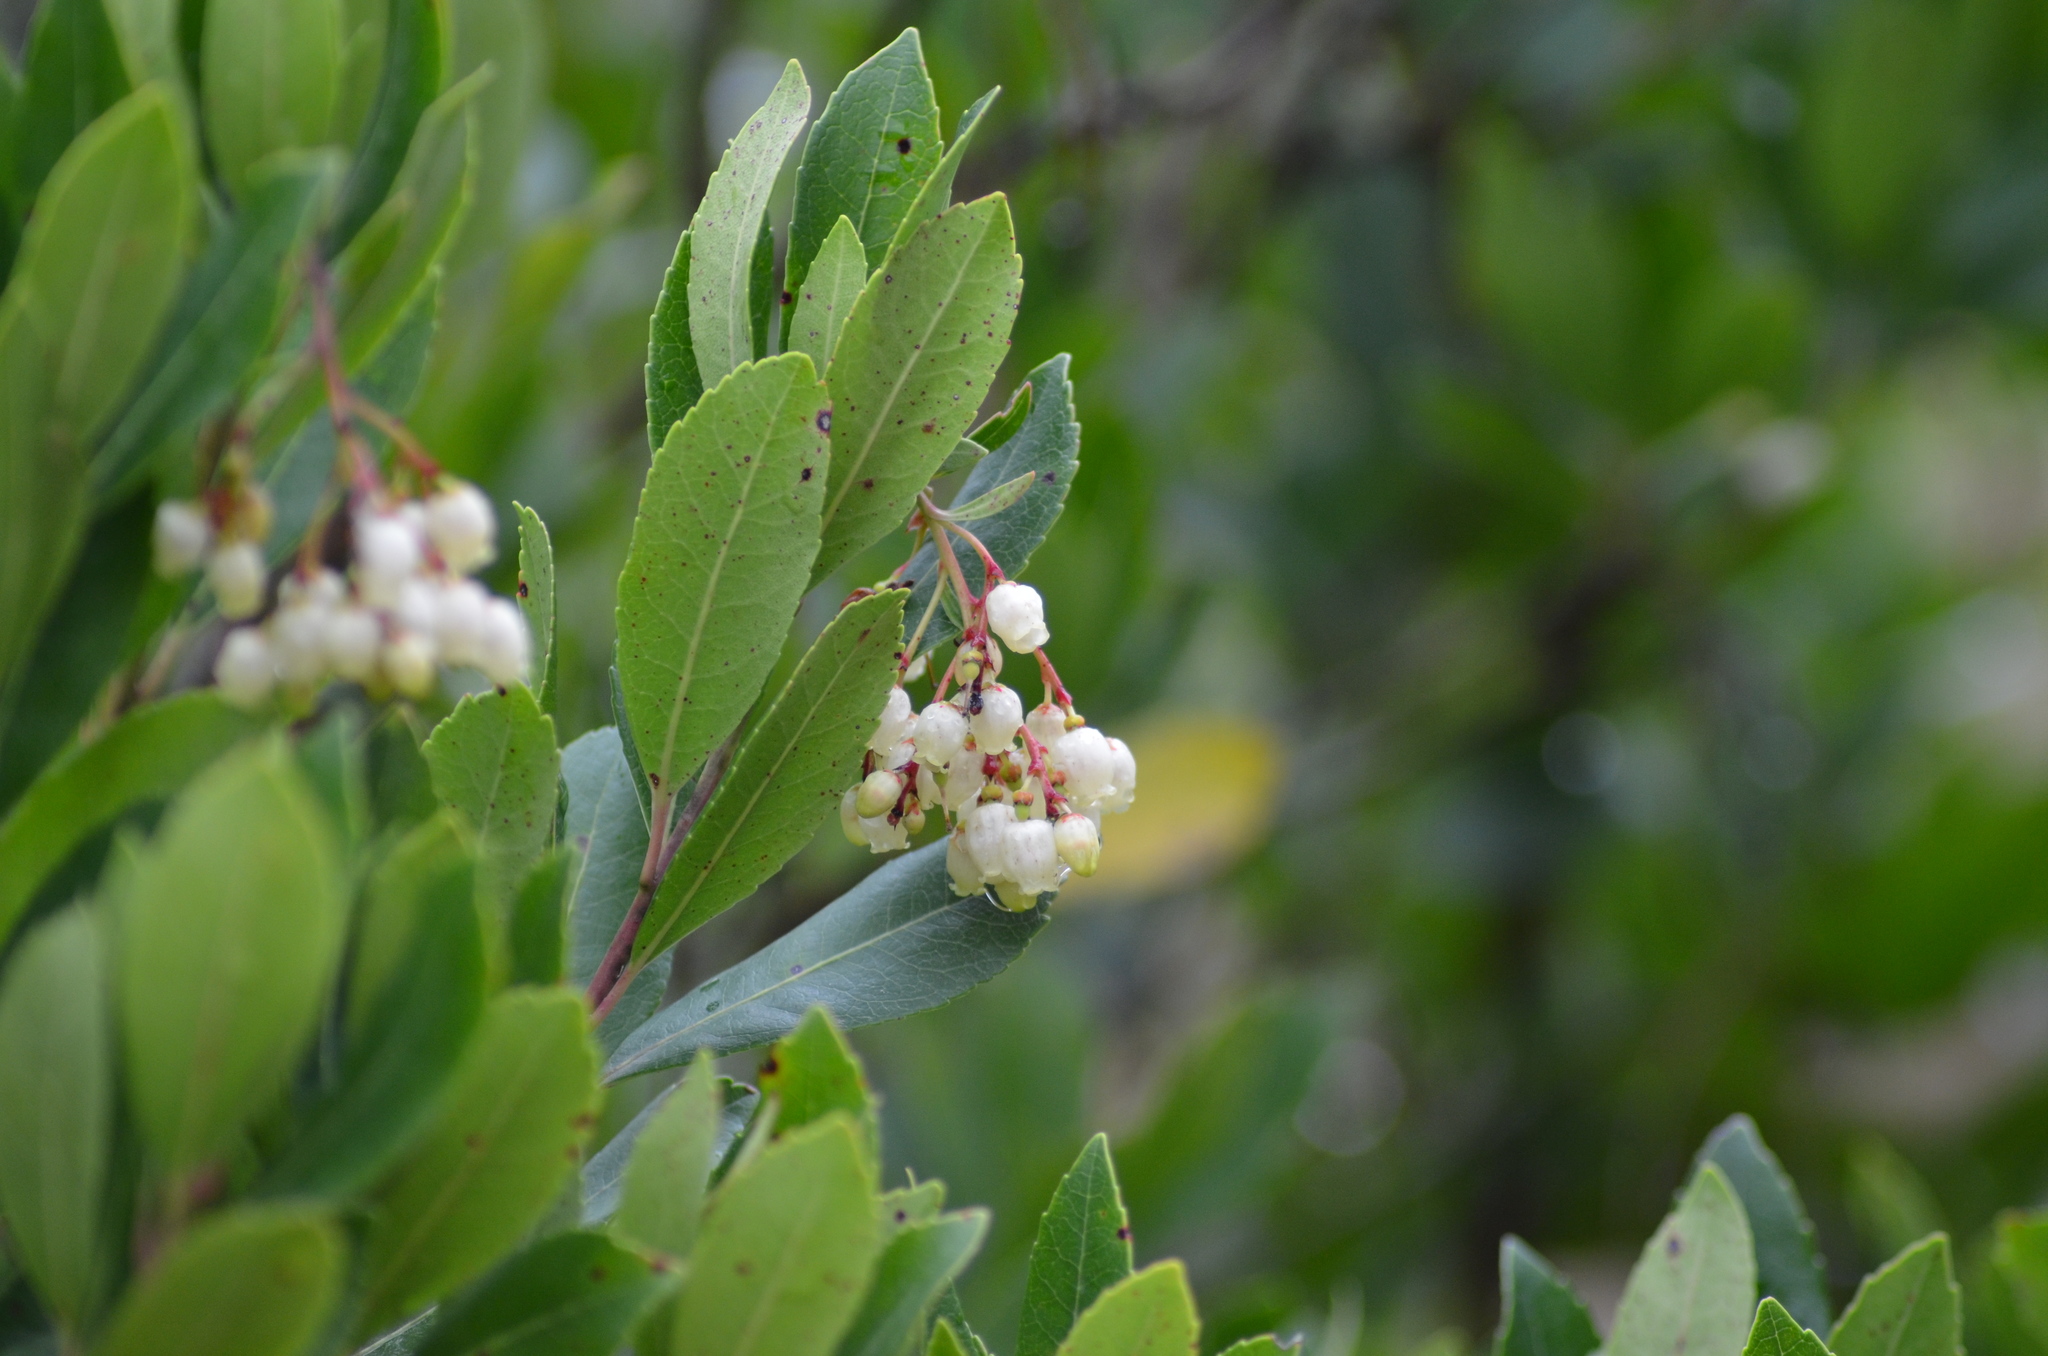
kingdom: Plantae
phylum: Tracheophyta
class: Magnoliopsida
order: Ericales
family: Ericaceae
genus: Arbutus
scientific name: Arbutus unedo
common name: Strawberry-tree
